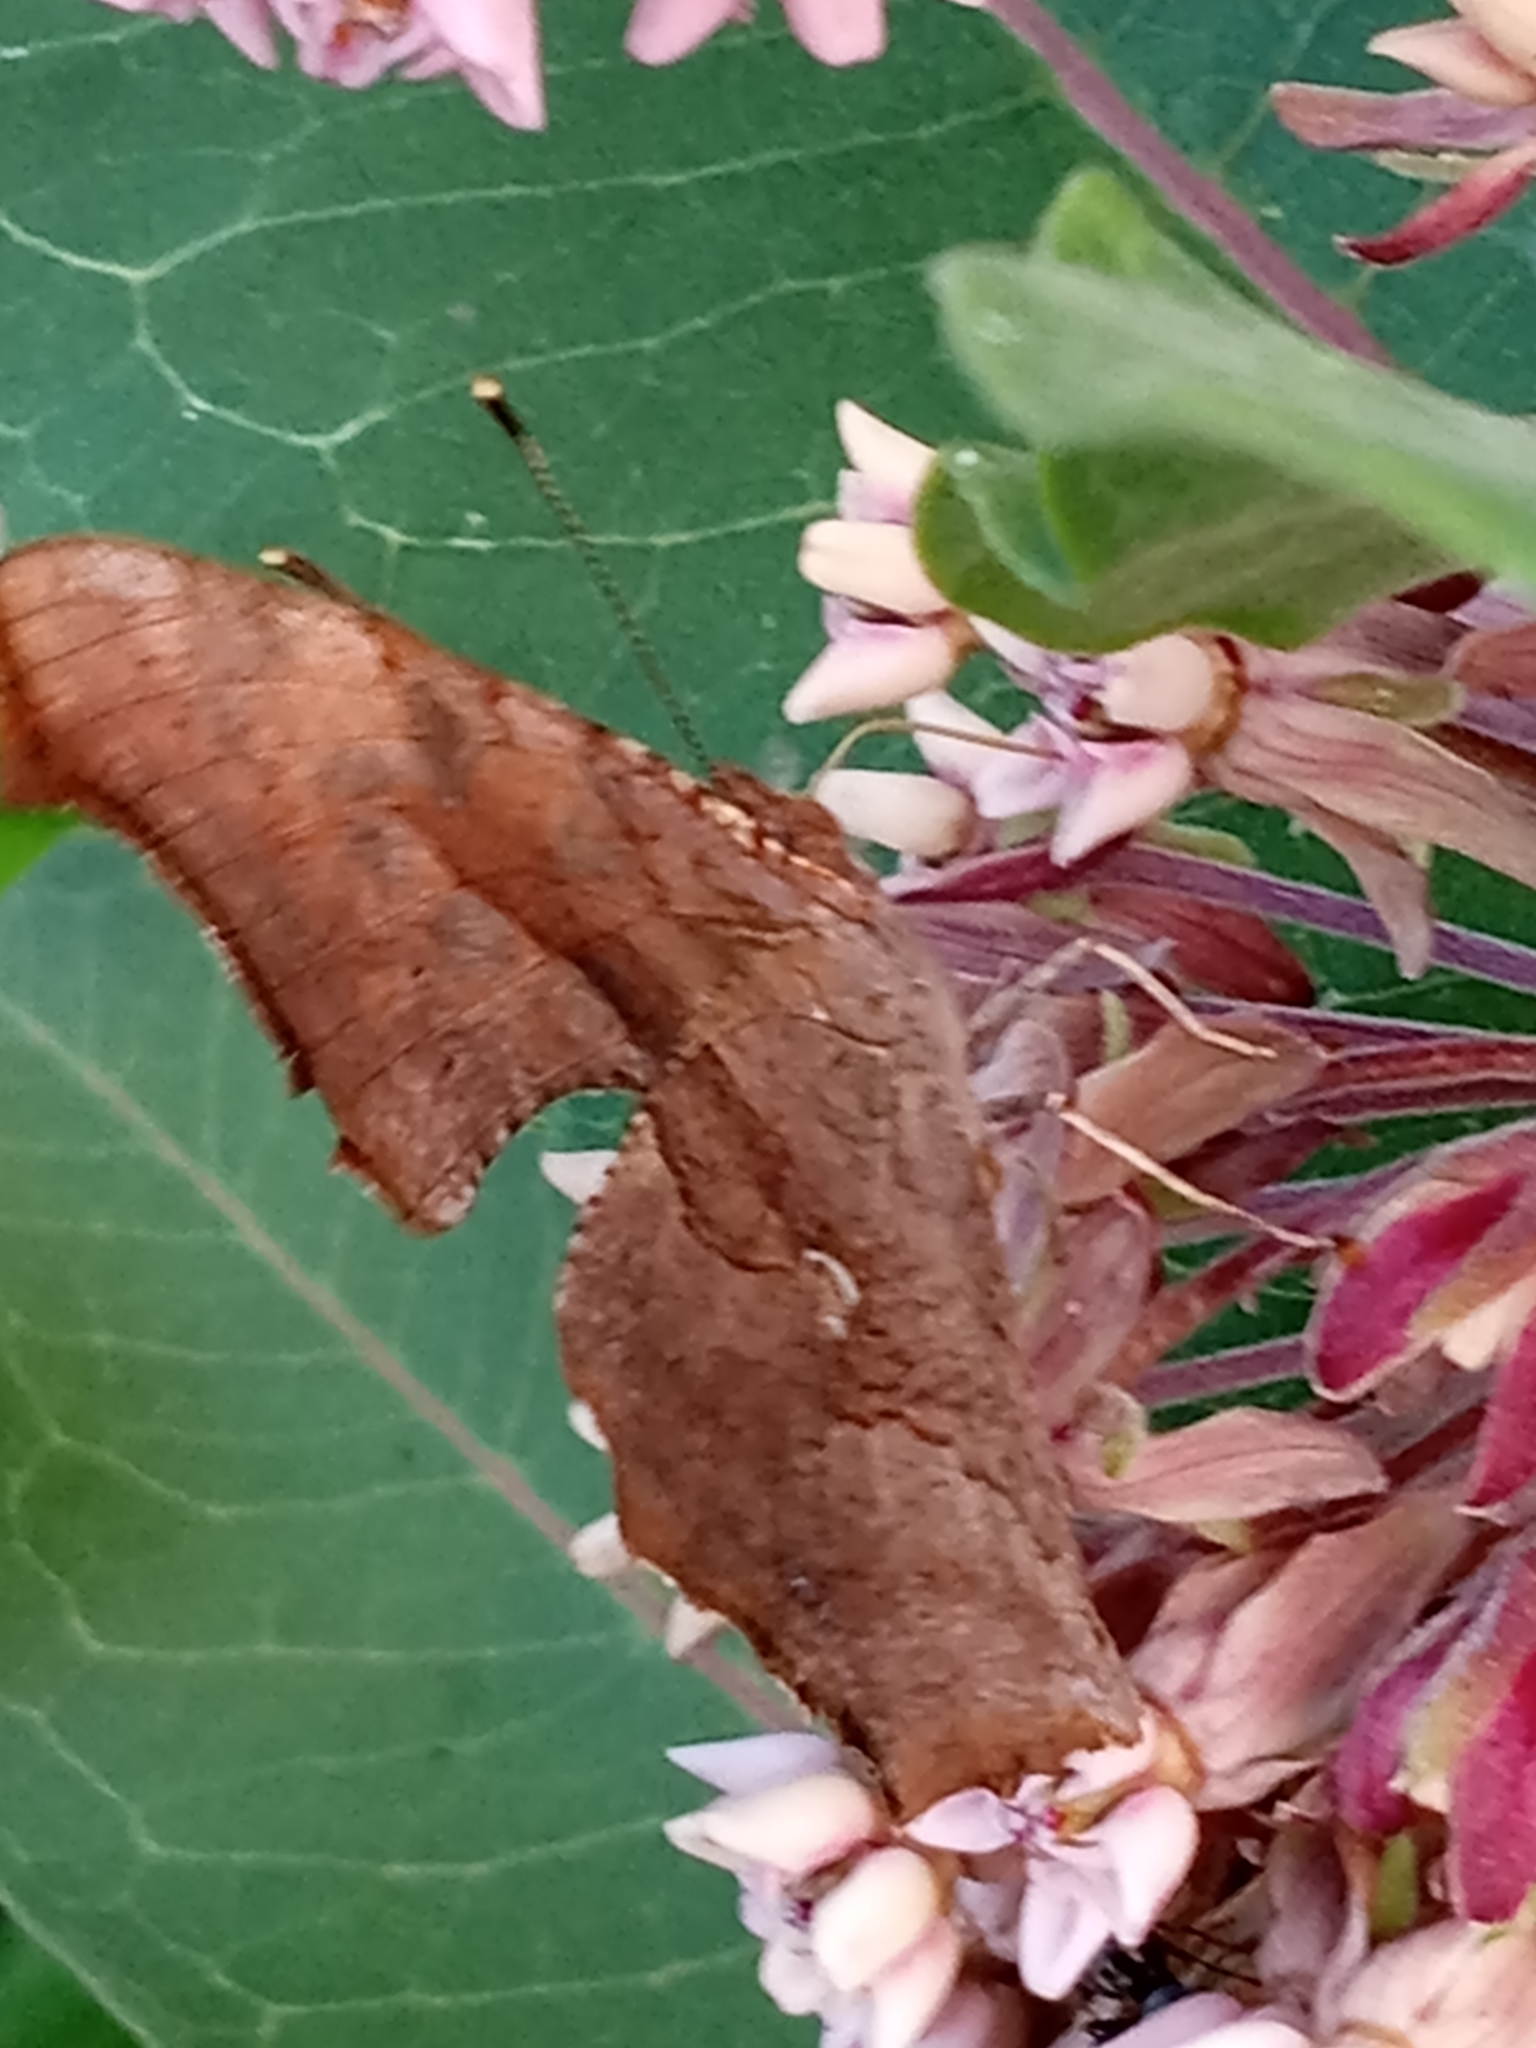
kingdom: Animalia
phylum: Arthropoda
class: Insecta
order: Lepidoptera
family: Nymphalidae
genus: Polygonia
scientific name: Polygonia interrogationis
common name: Question mark
